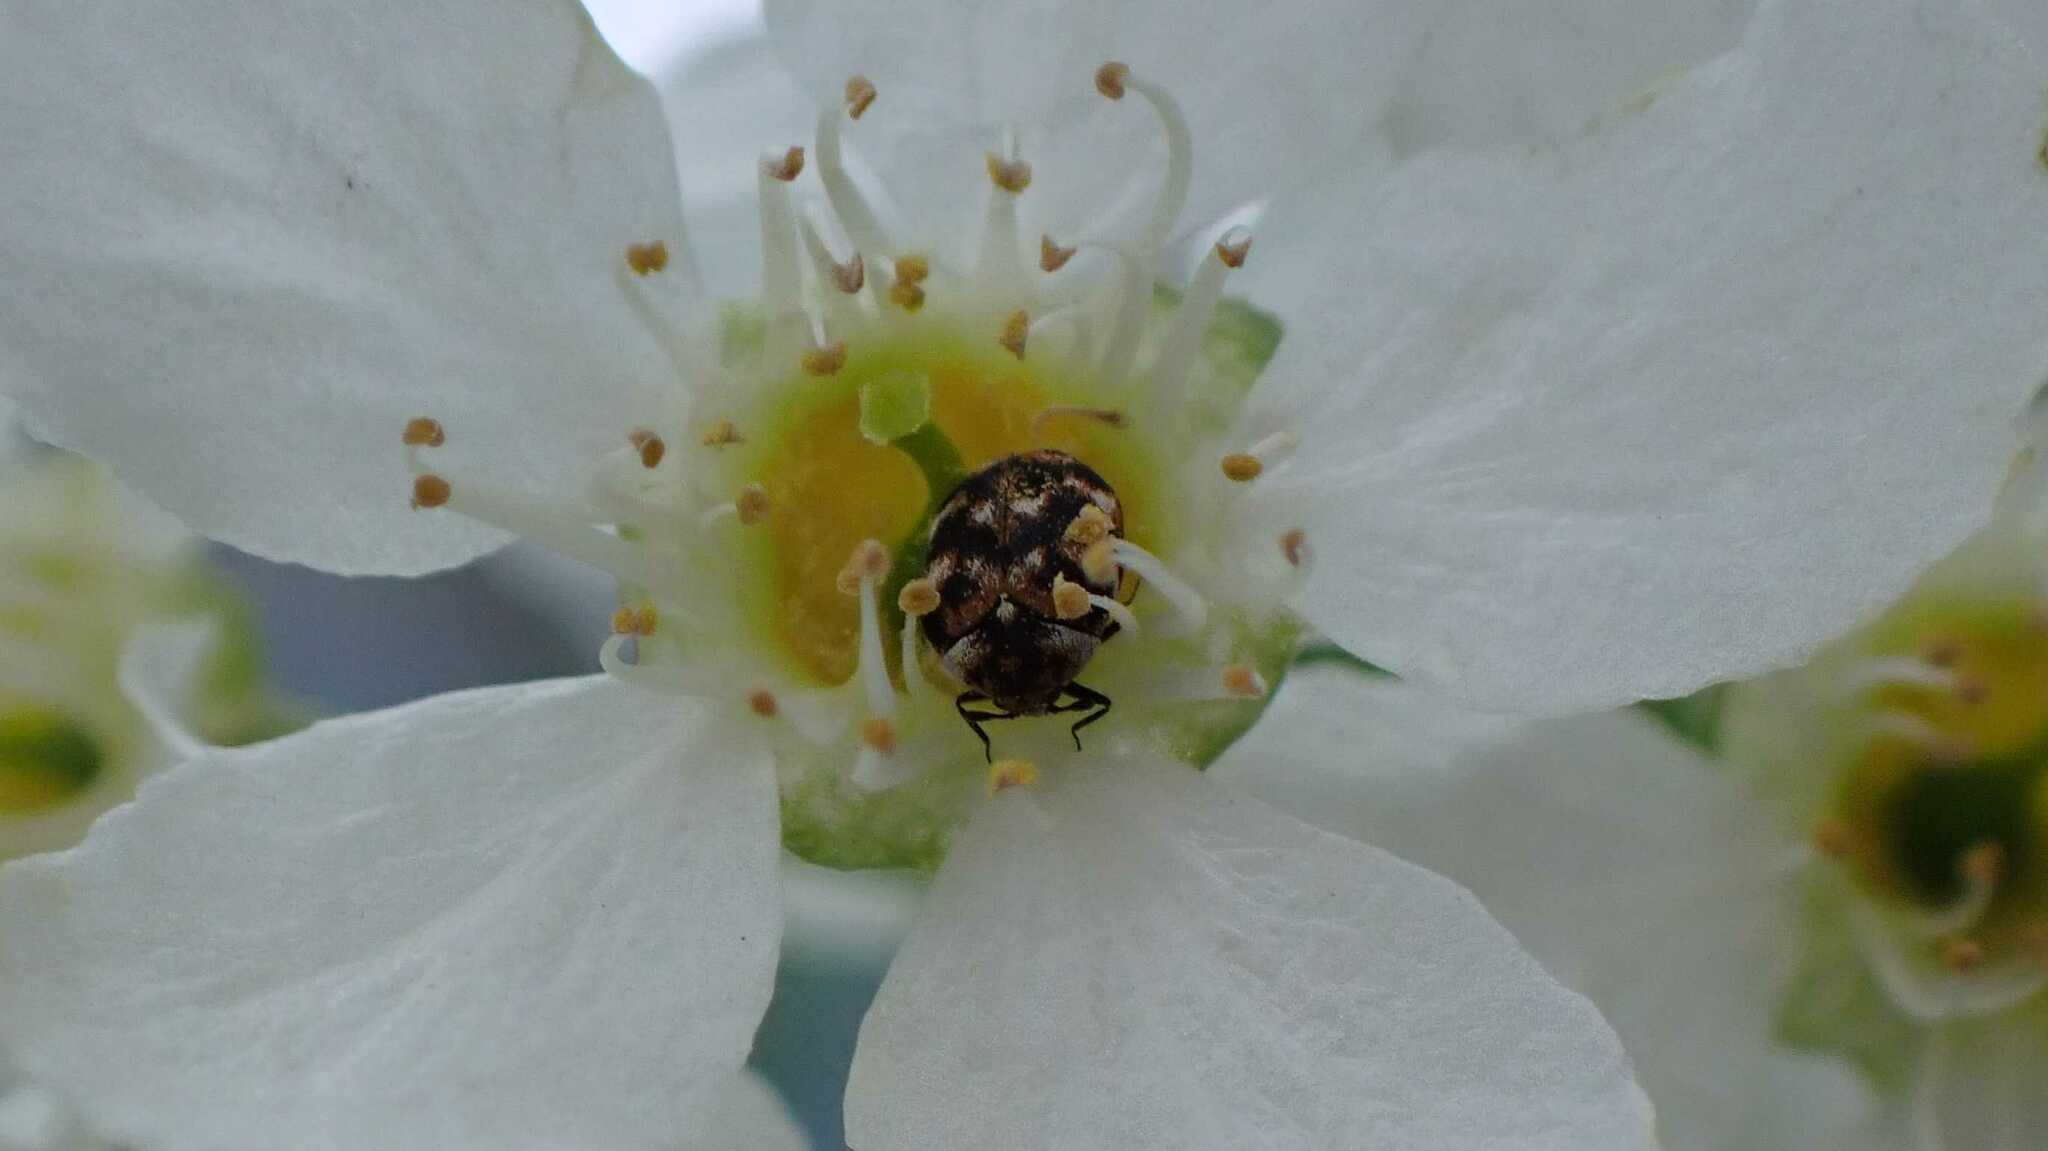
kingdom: Animalia
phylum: Arthropoda
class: Insecta
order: Coleoptera
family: Dermestidae
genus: Anthrenus
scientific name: Anthrenus verbasci
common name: Varied carpet beetle
